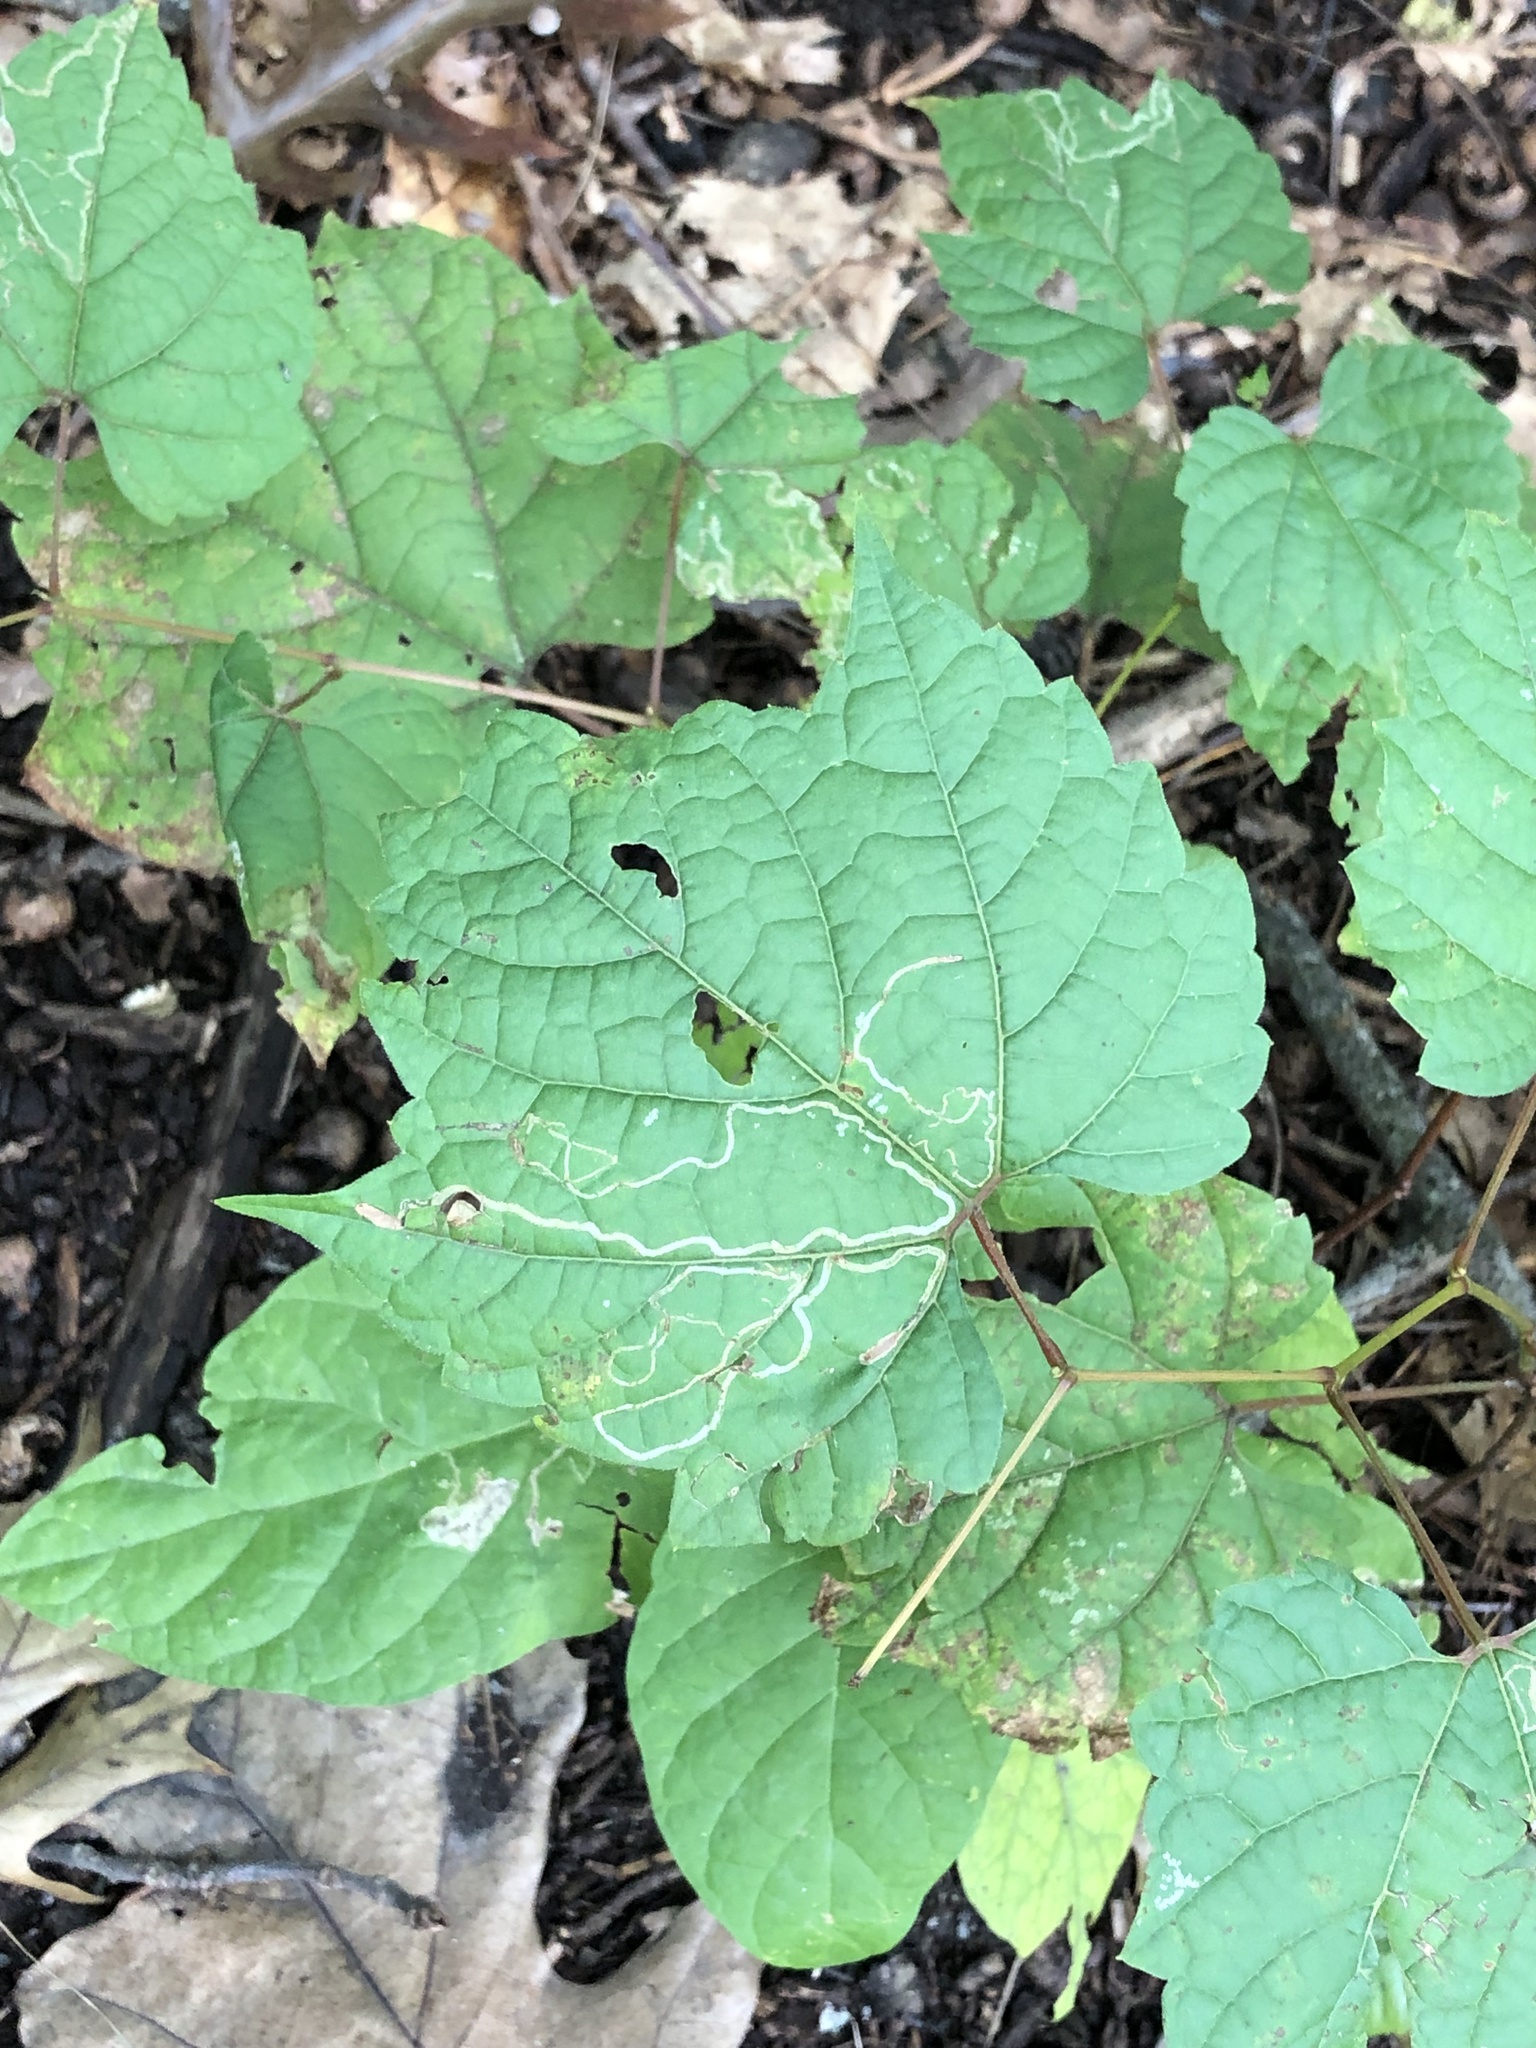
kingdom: Animalia
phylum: Arthropoda
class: Insecta
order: Lepidoptera
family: Gracillariidae
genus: Phyllocnistis
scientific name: Phyllocnistis vitifoliella
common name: Grape leaf-miner moth
